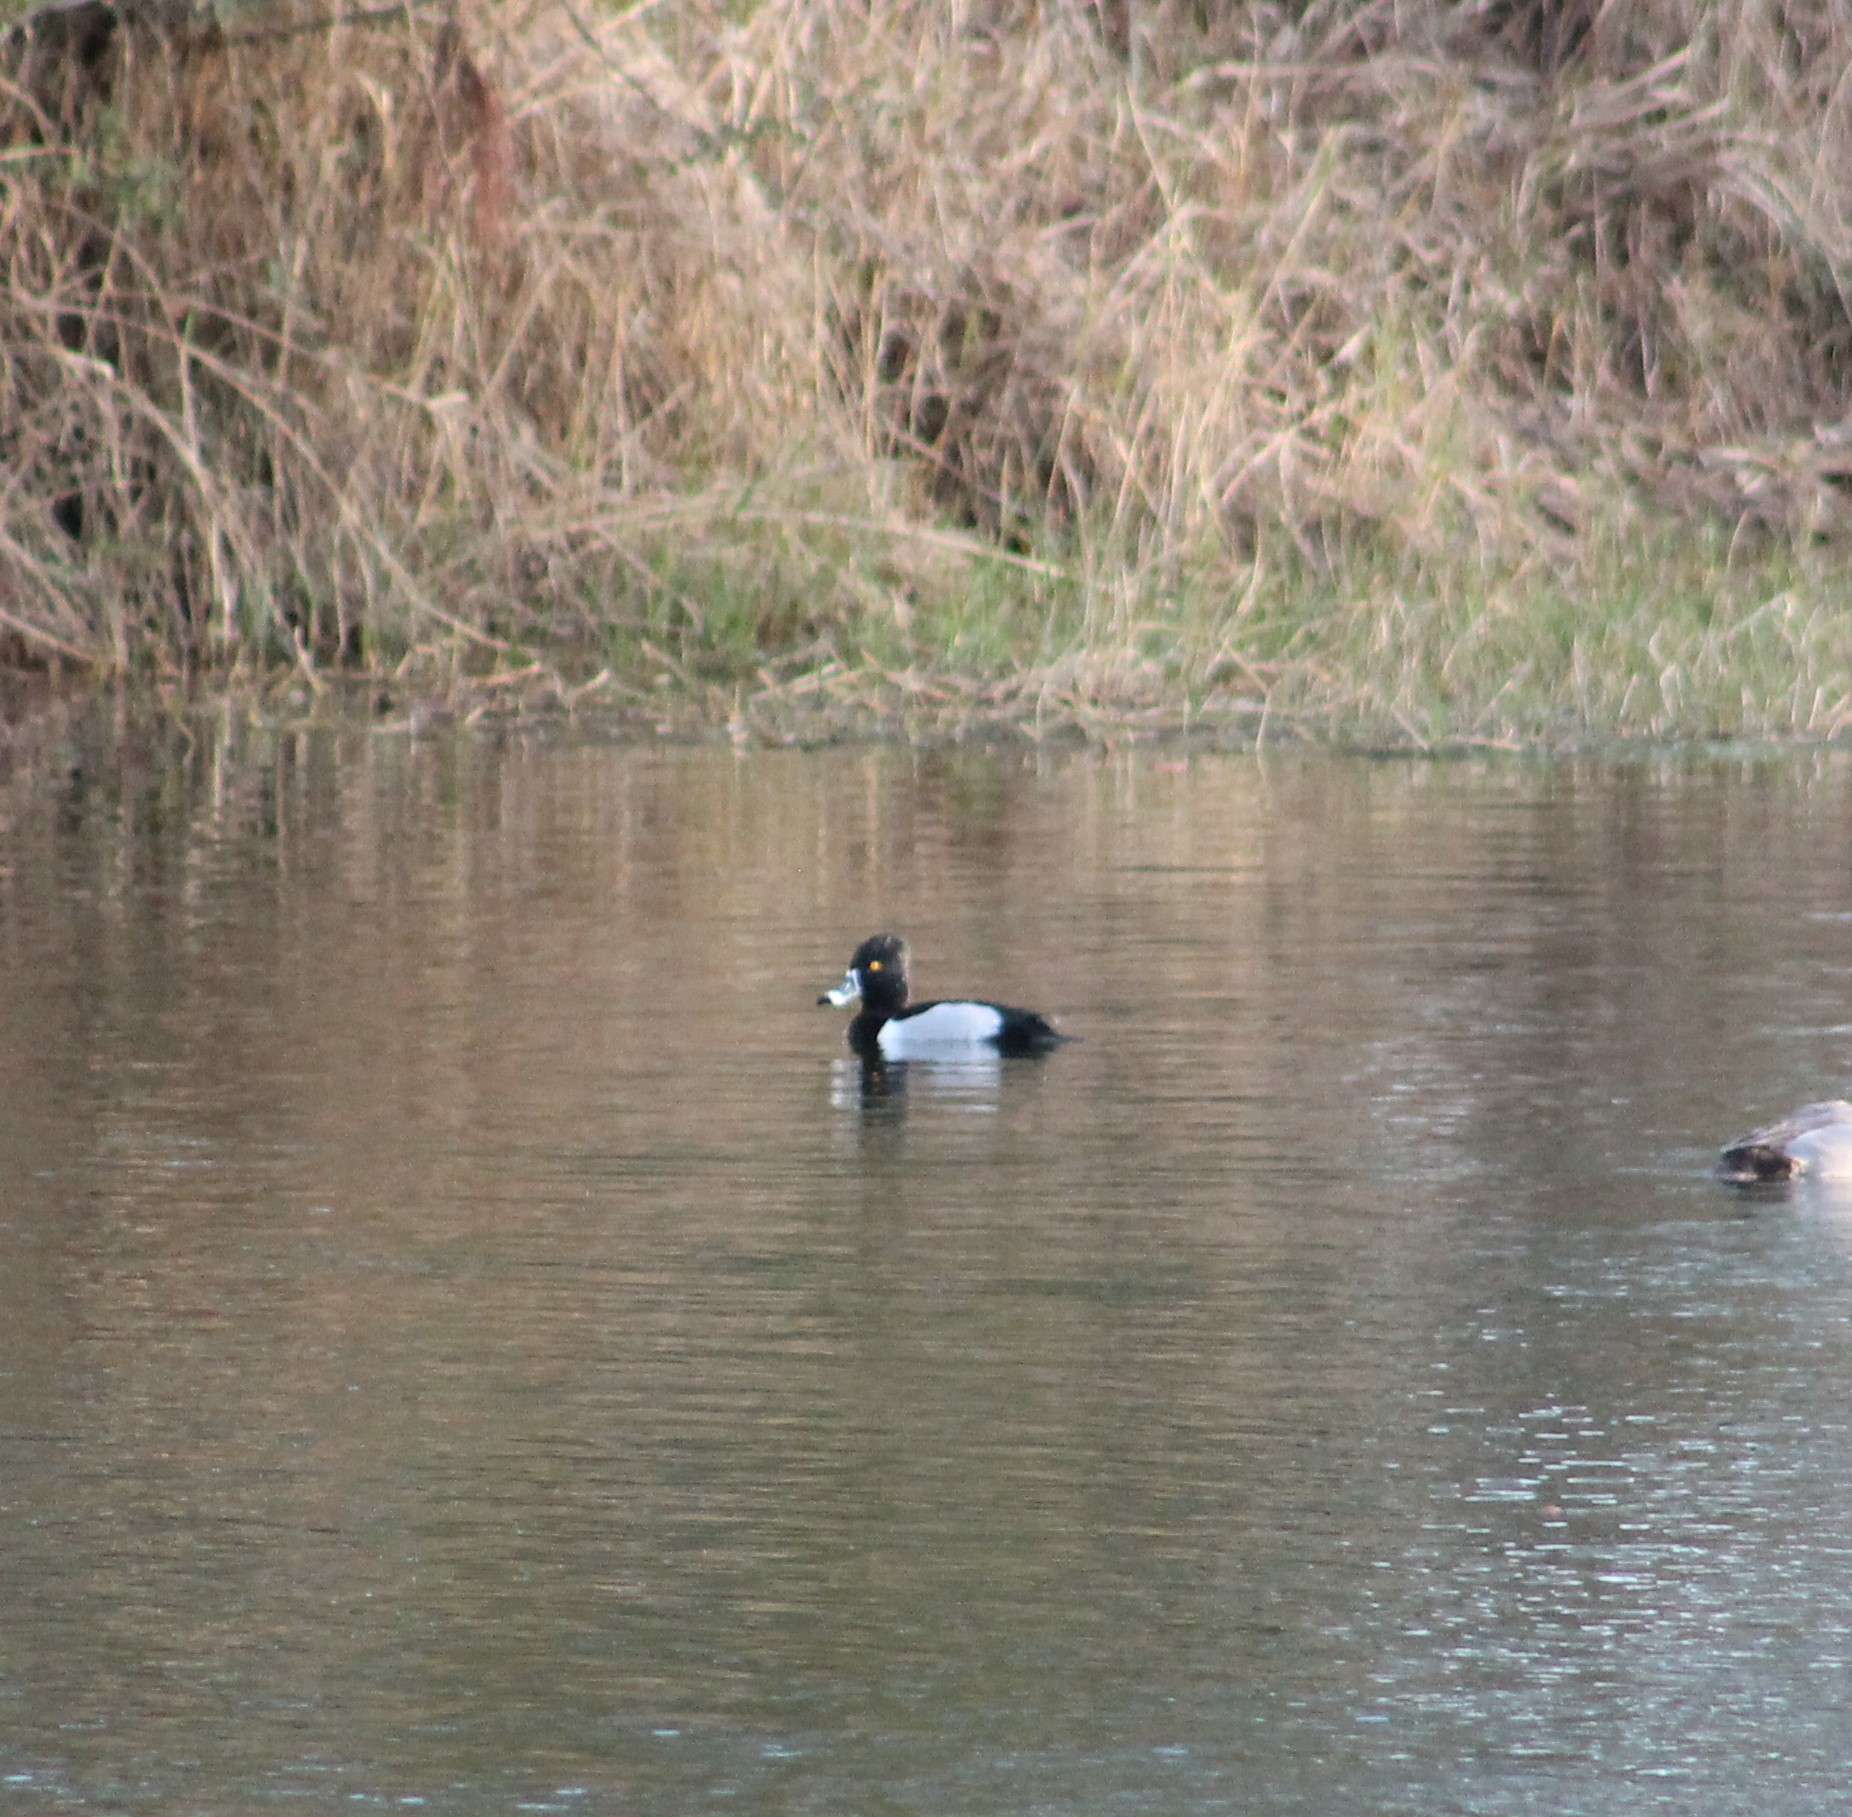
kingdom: Animalia
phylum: Chordata
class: Aves
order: Anseriformes
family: Anatidae
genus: Aythya
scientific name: Aythya collaris
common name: Ring-necked duck
